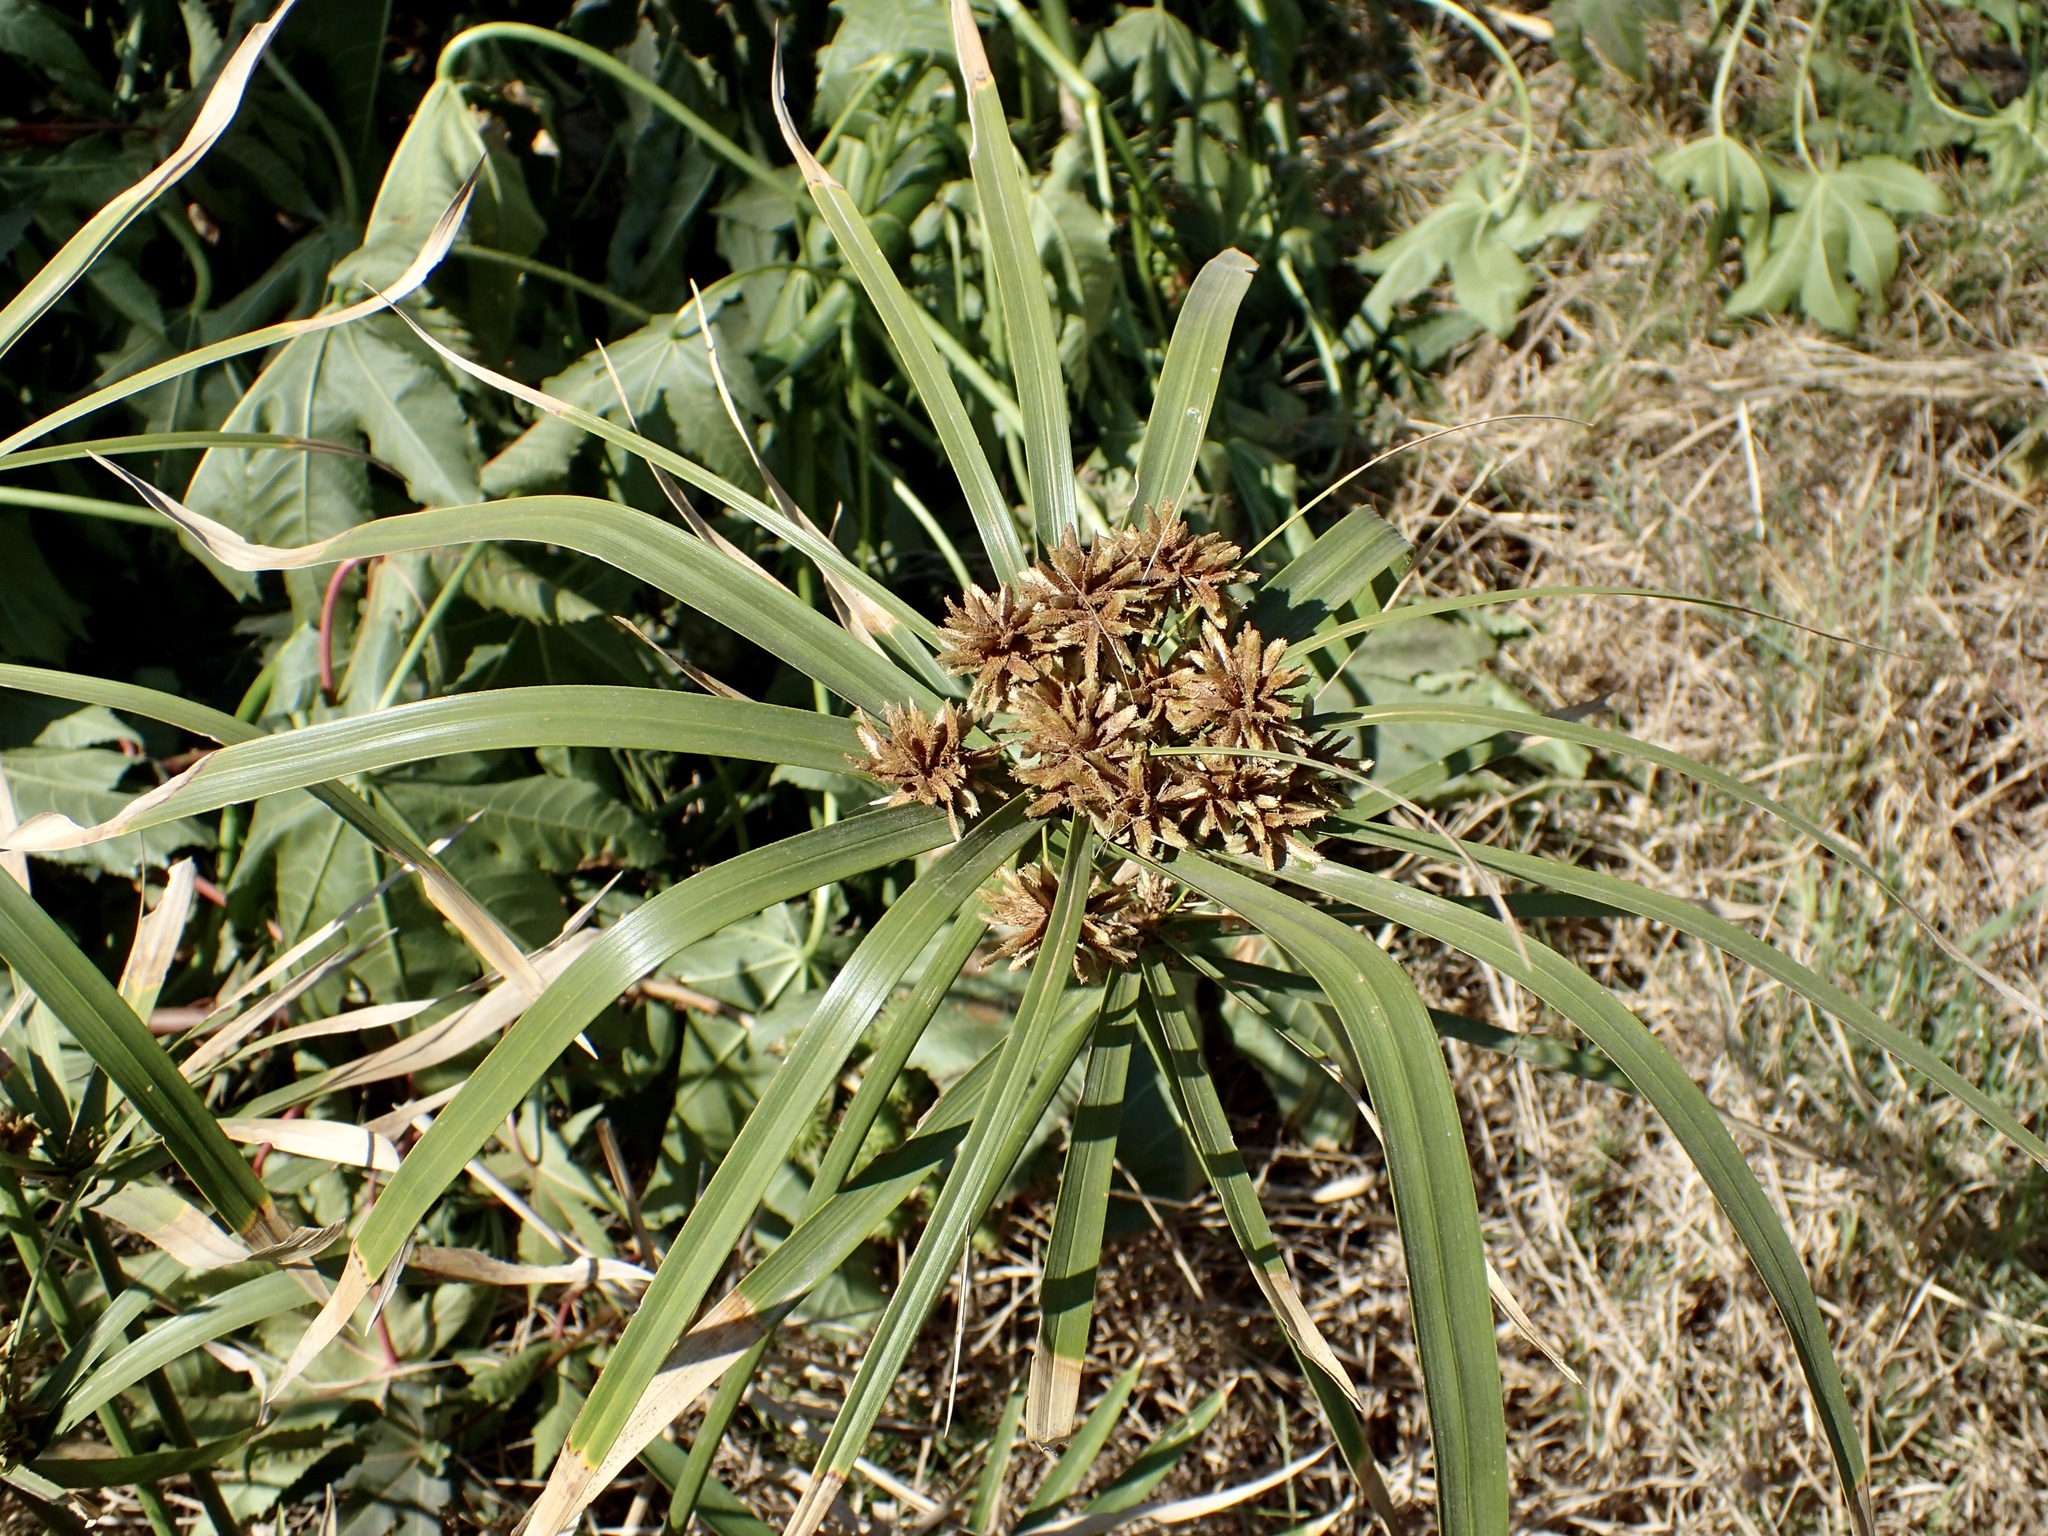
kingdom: Plantae
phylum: Tracheophyta
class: Liliopsida
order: Poales
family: Cyperaceae
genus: Cyperus
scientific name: Cyperus alternifolius
